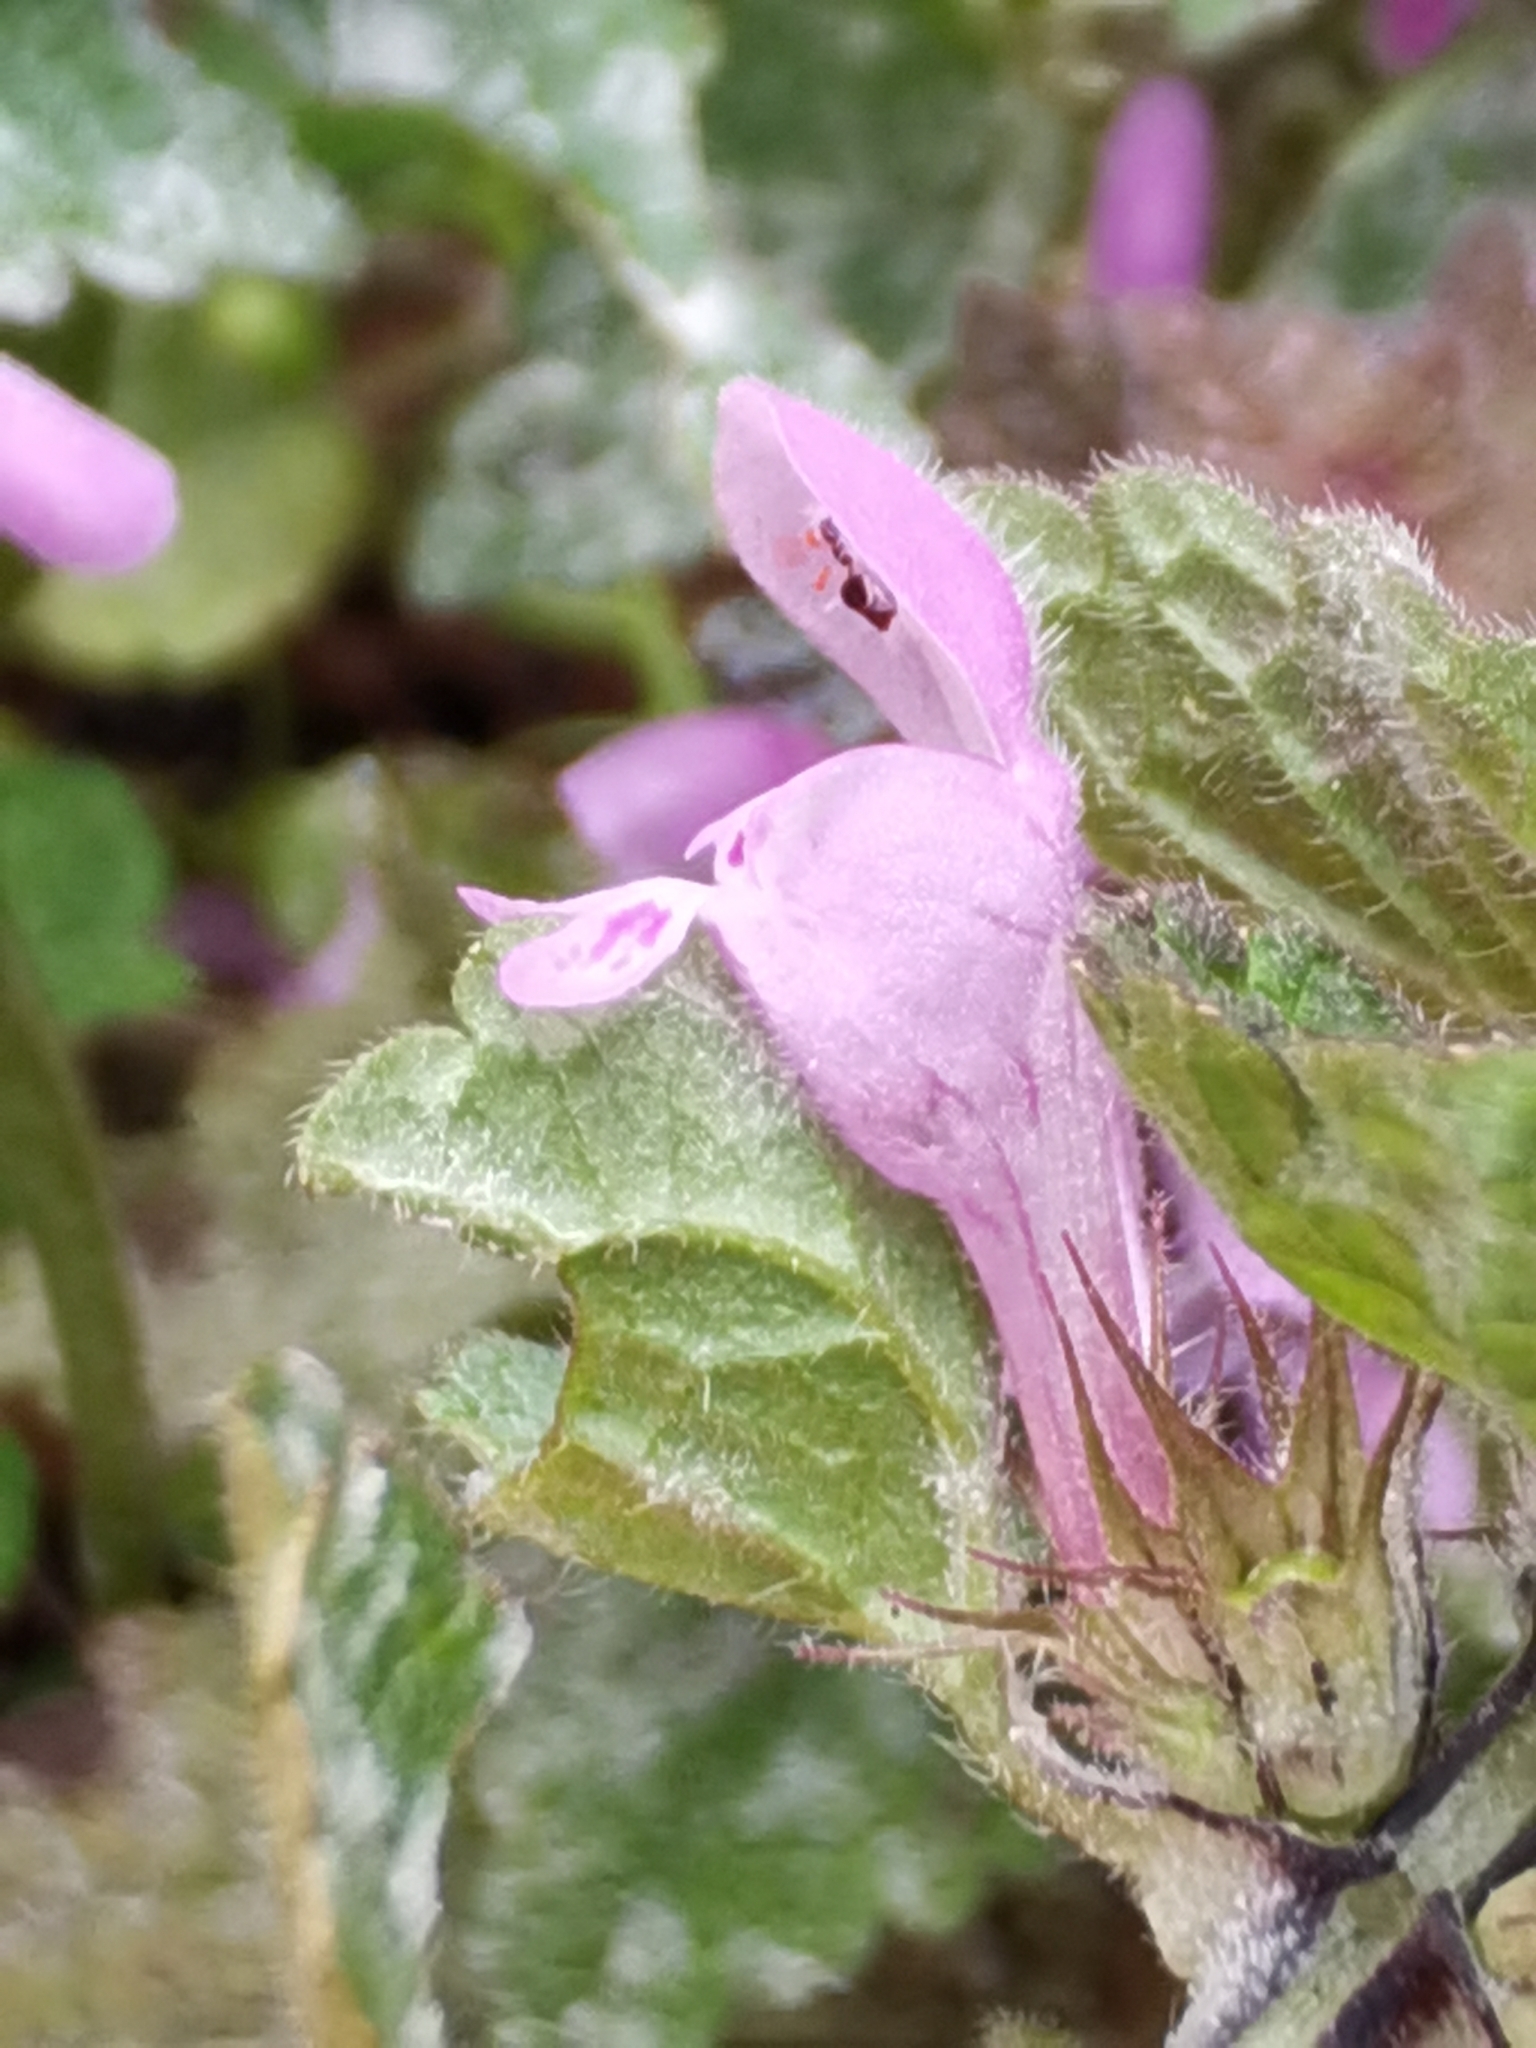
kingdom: Plantae
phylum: Tracheophyta
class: Magnoliopsida
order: Lamiales
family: Lamiaceae
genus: Lamium
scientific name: Lamium purpureum
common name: Red dead-nettle
